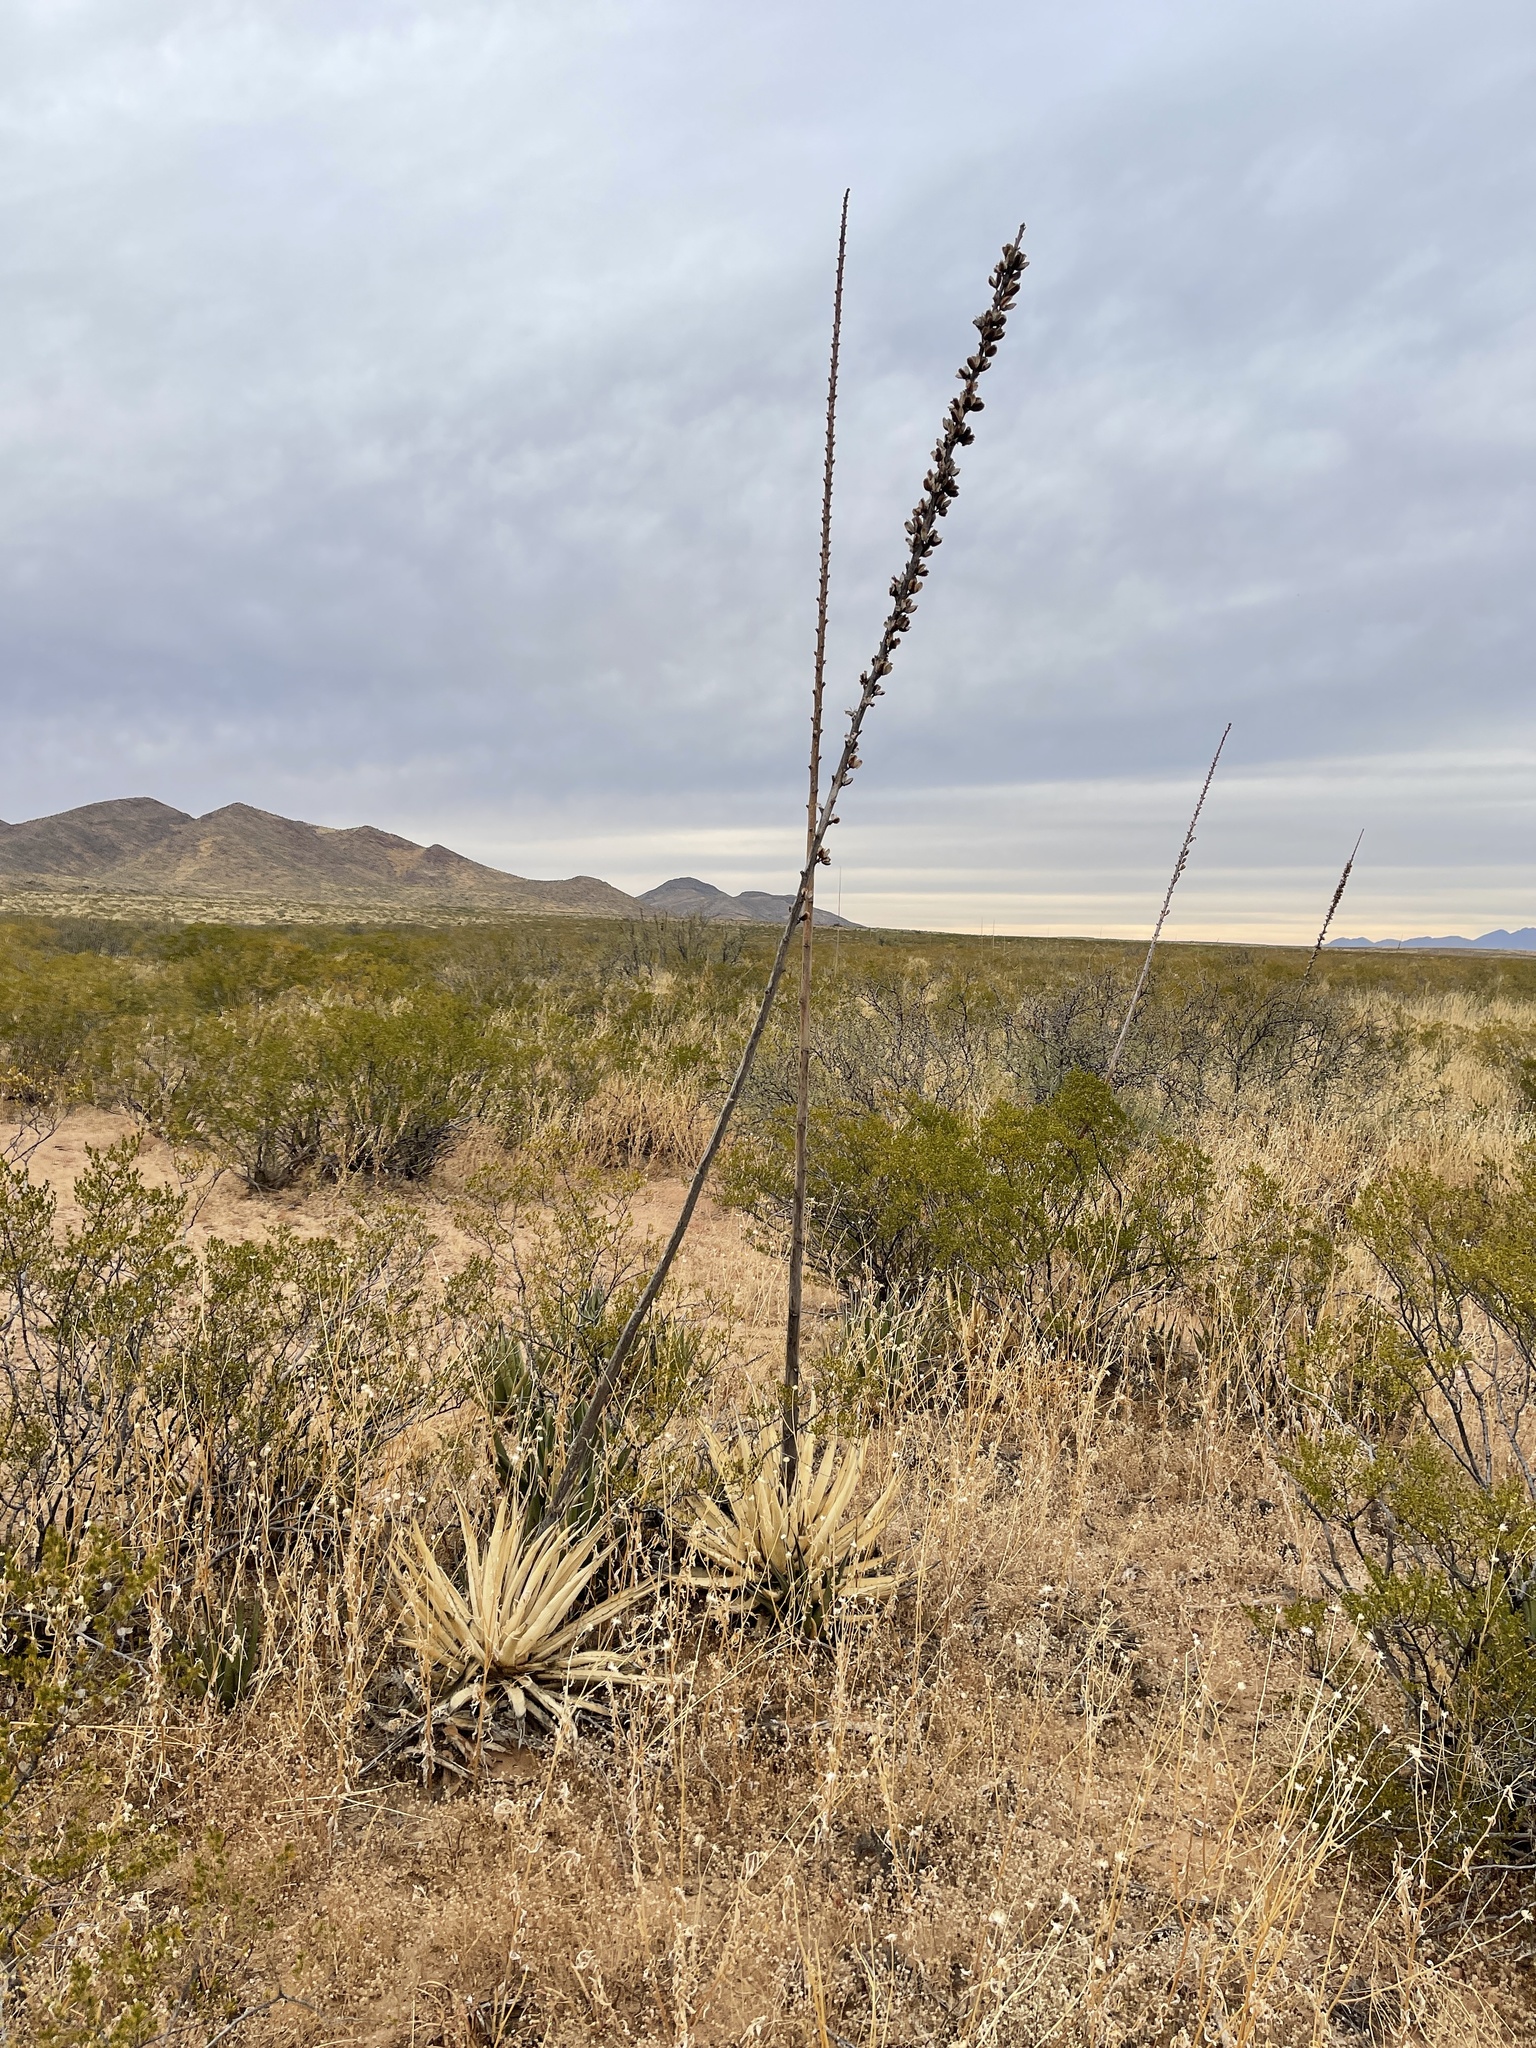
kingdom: Plantae
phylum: Tracheophyta
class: Liliopsida
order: Asparagales
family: Asparagaceae
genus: Agave
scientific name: Agave lechuguilla
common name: Lecheguilla agave
